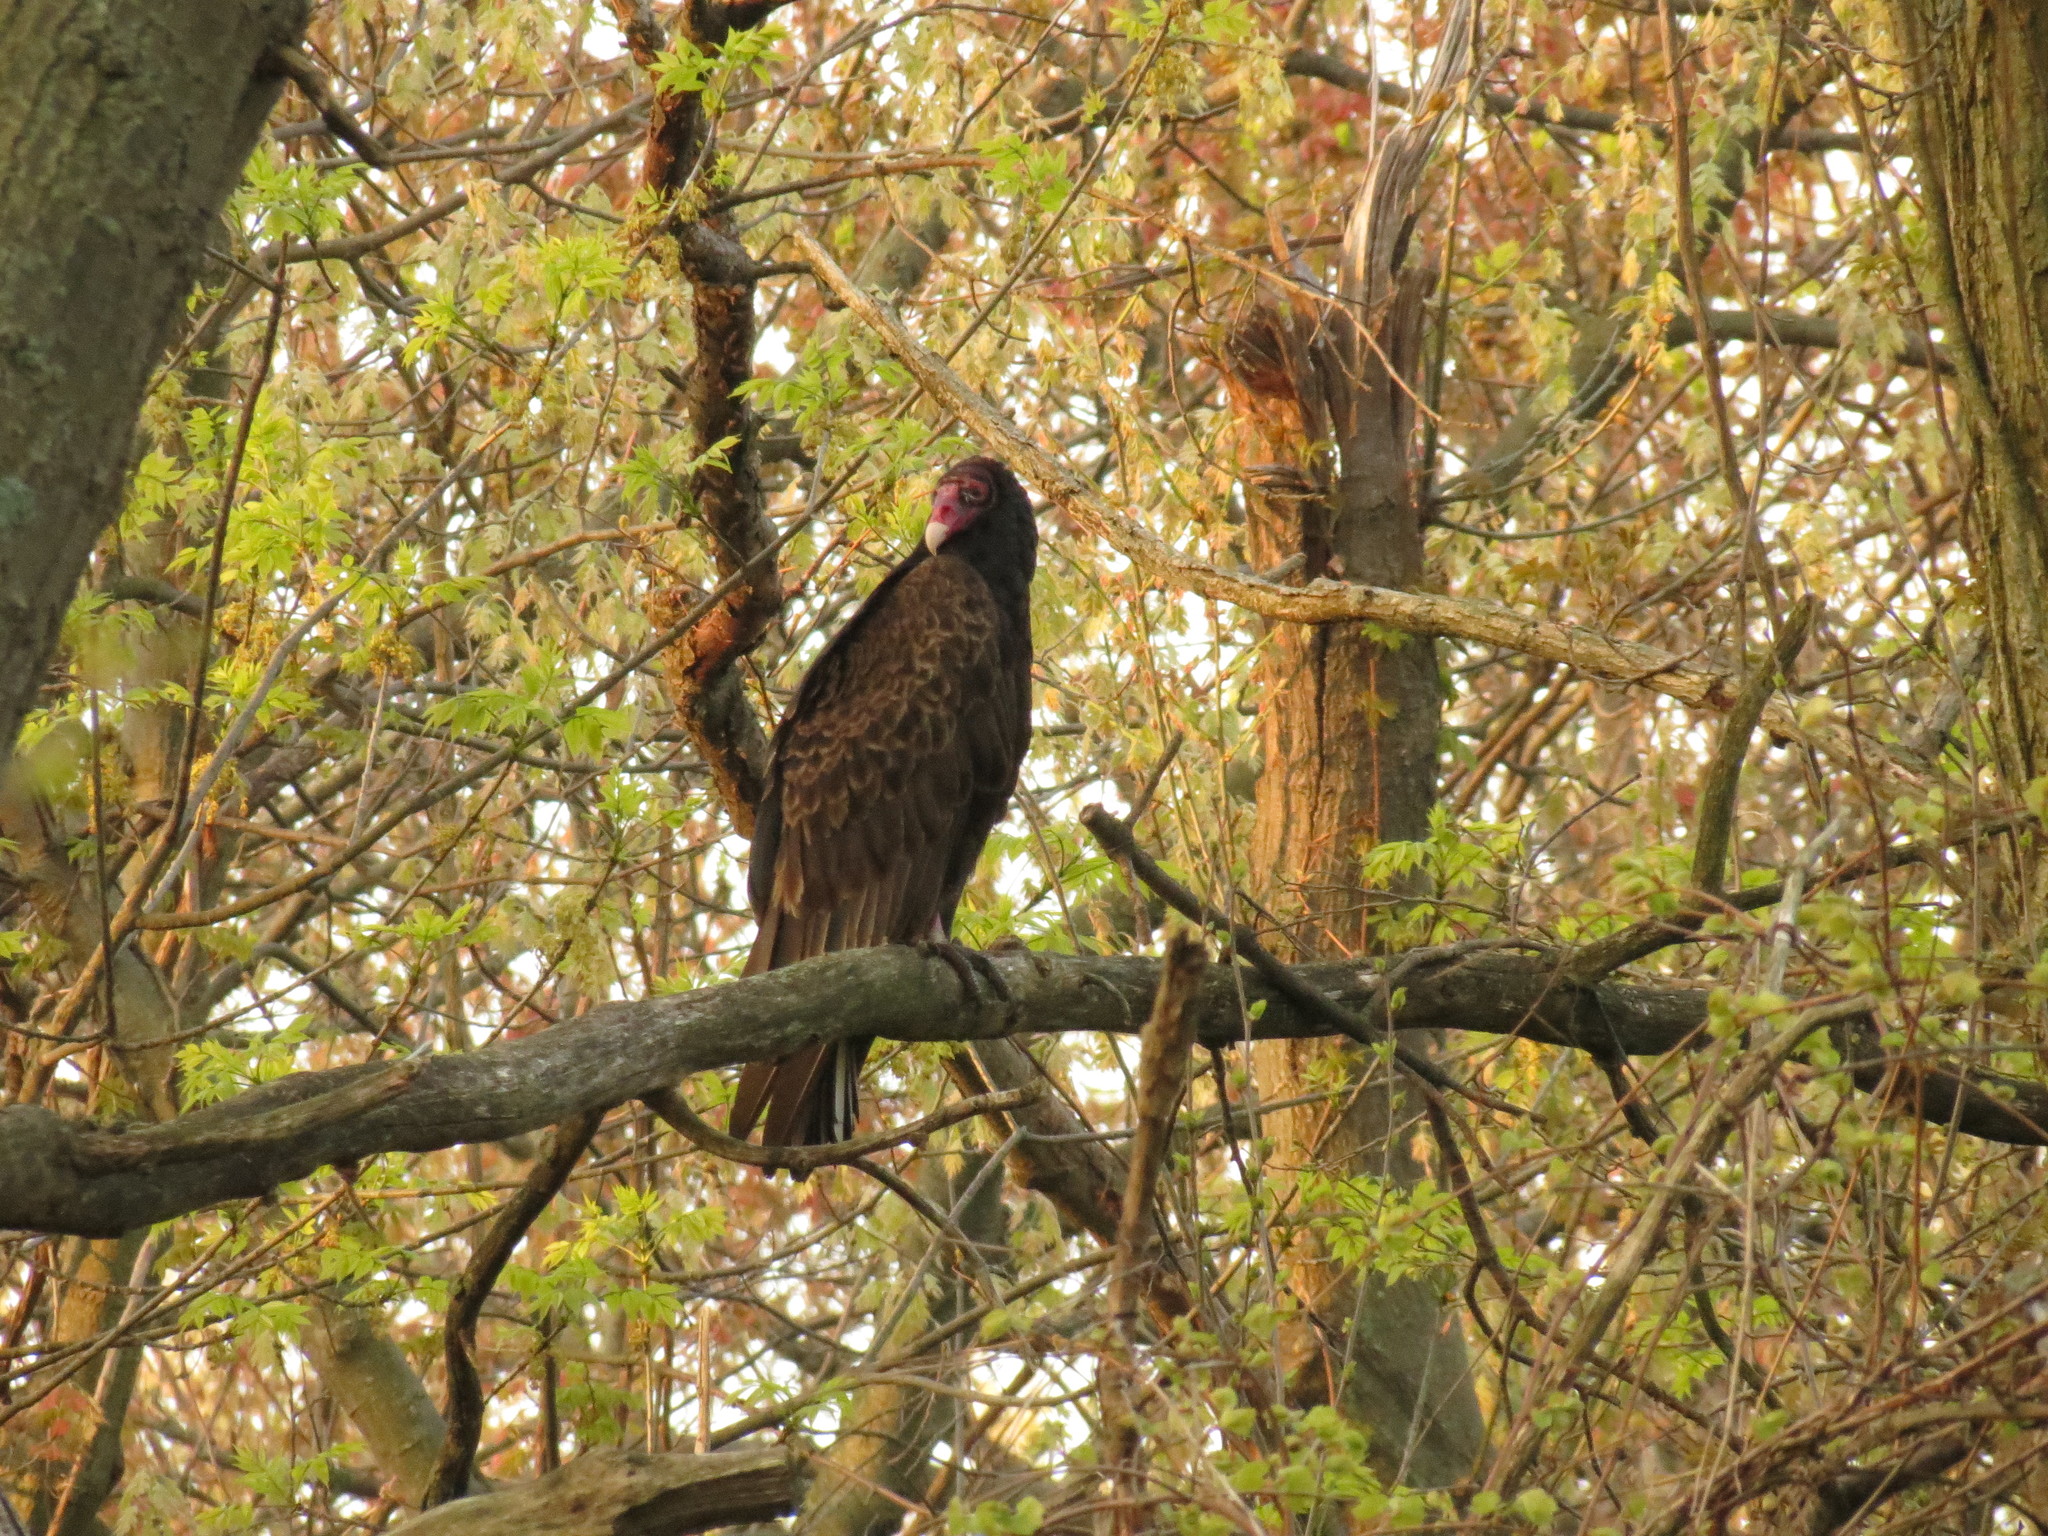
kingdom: Animalia
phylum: Chordata
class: Aves
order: Accipitriformes
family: Cathartidae
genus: Cathartes
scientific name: Cathartes aura
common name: Turkey vulture
